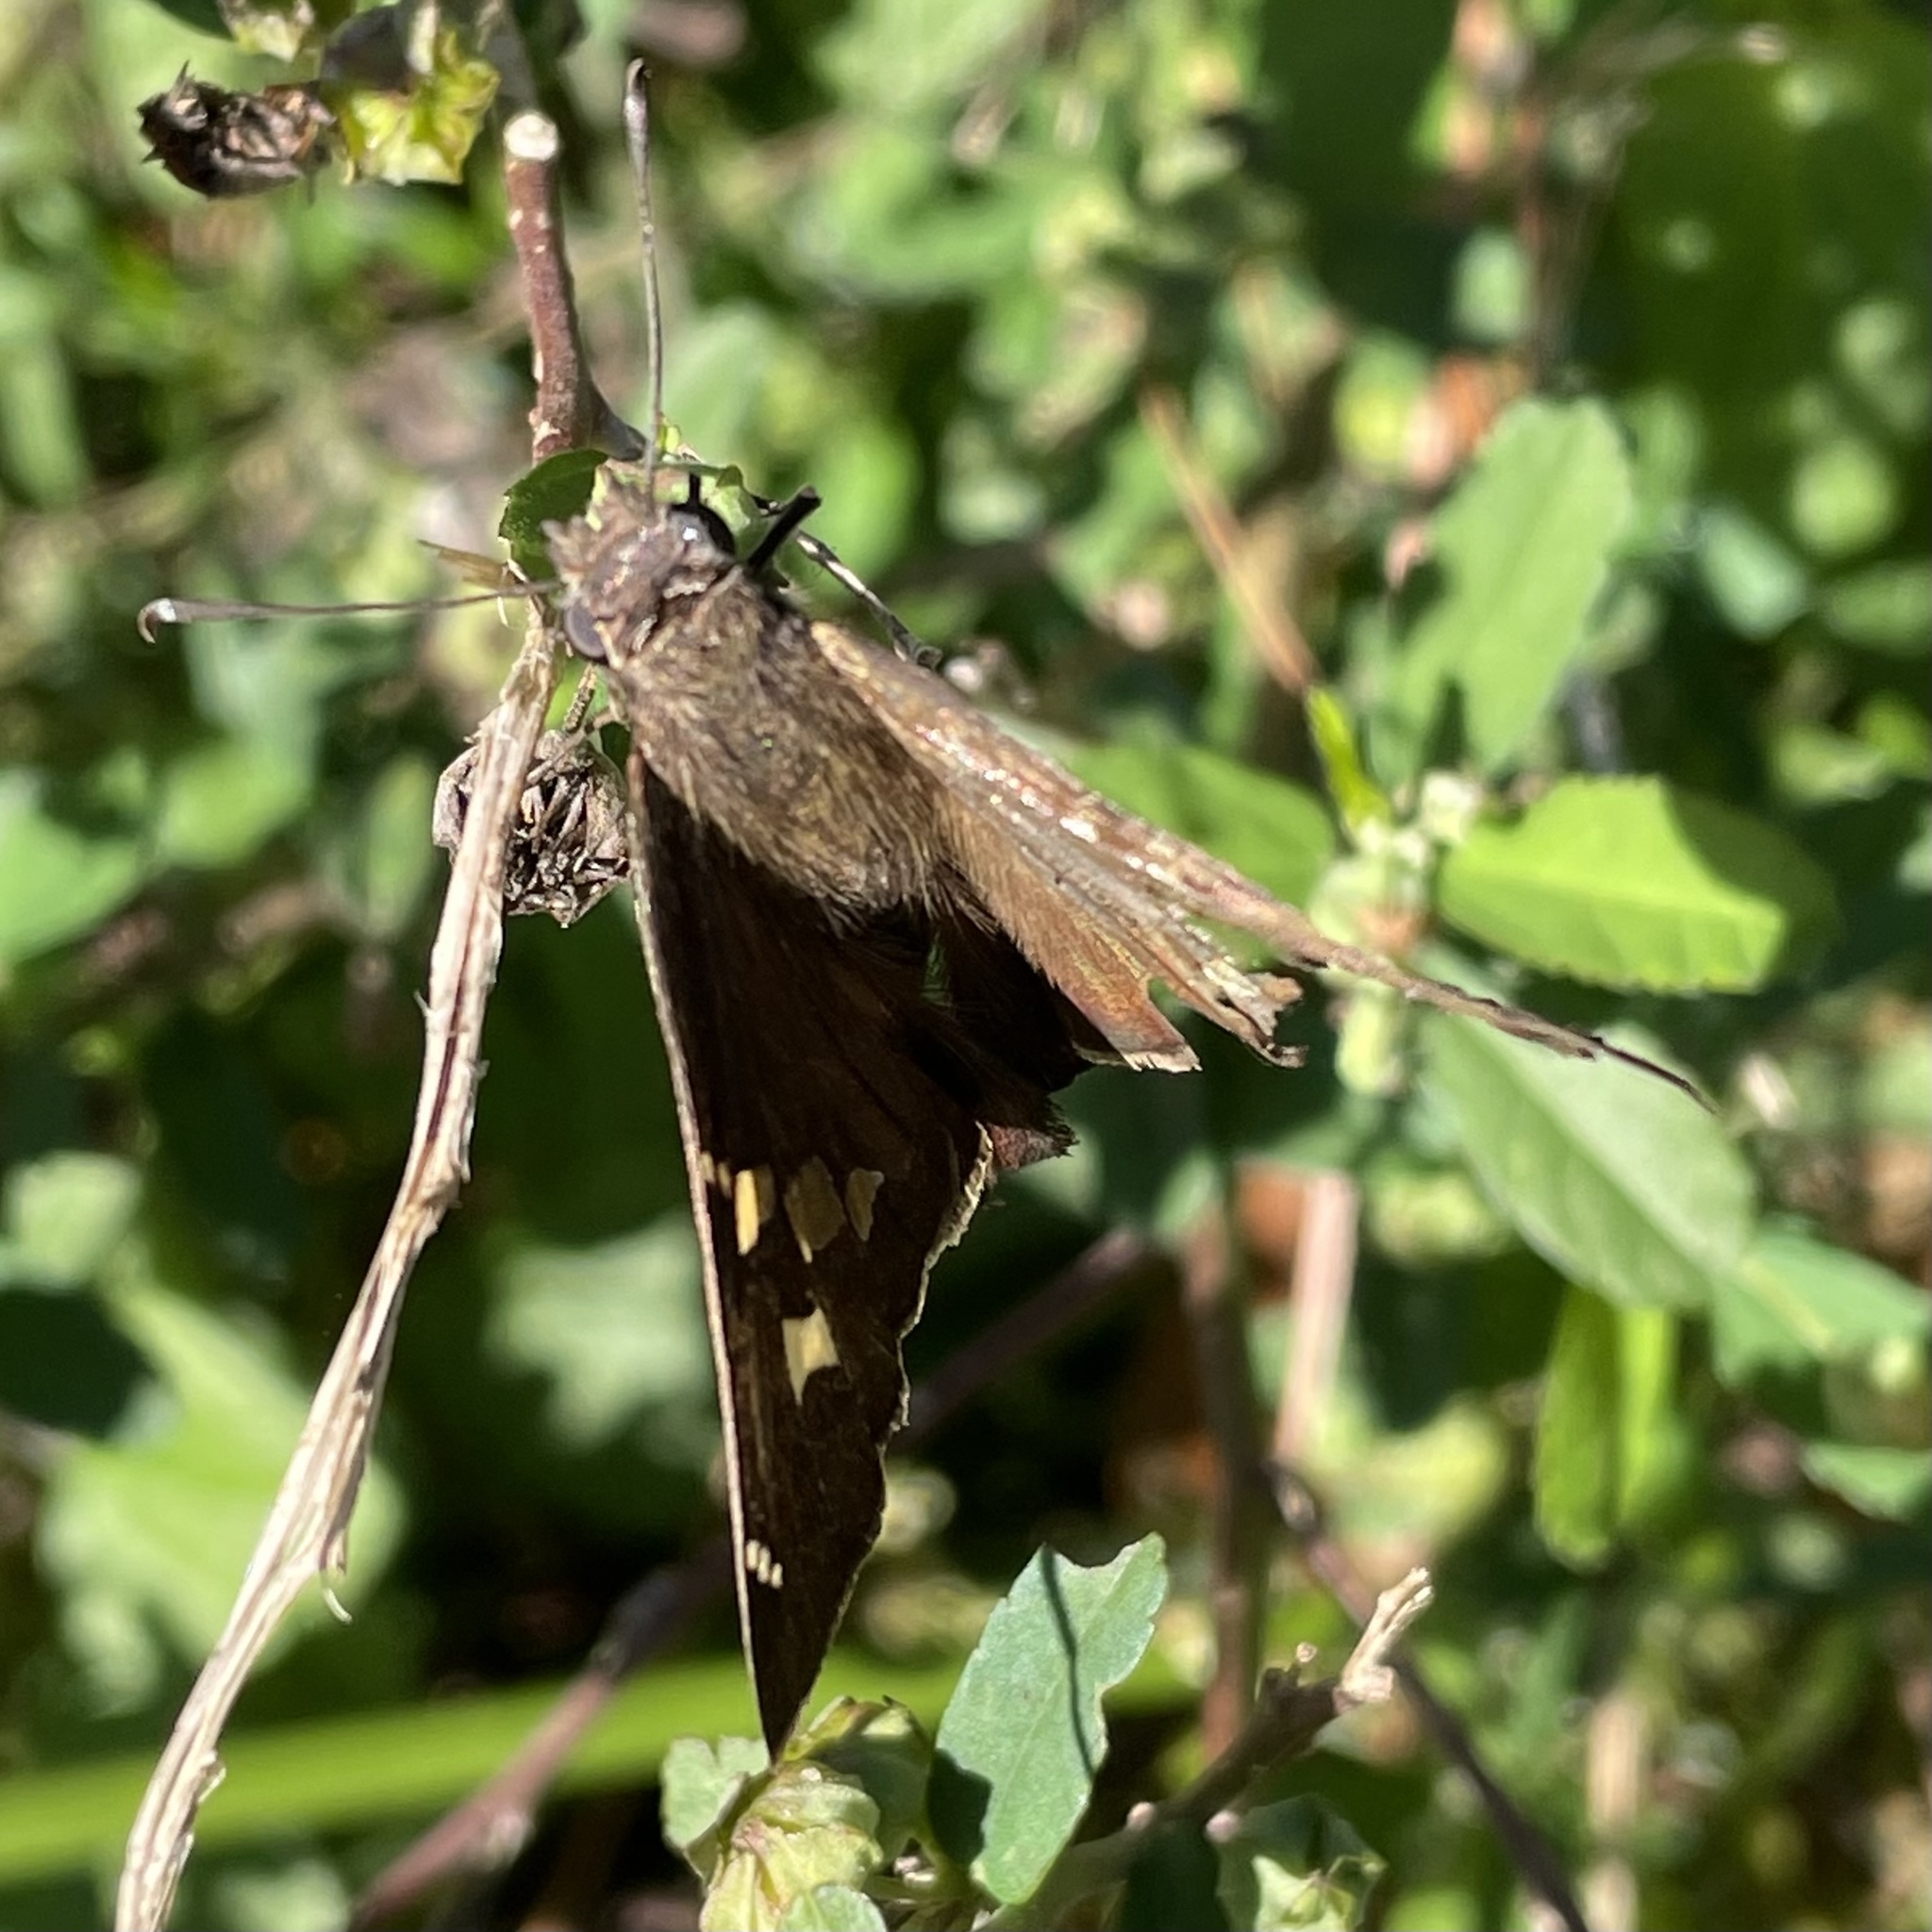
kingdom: Animalia
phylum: Arthropoda
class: Insecta
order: Lepidoptera
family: Hesperiidae
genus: Chioides
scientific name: Chioides catillus
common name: Silverbanded skipper
